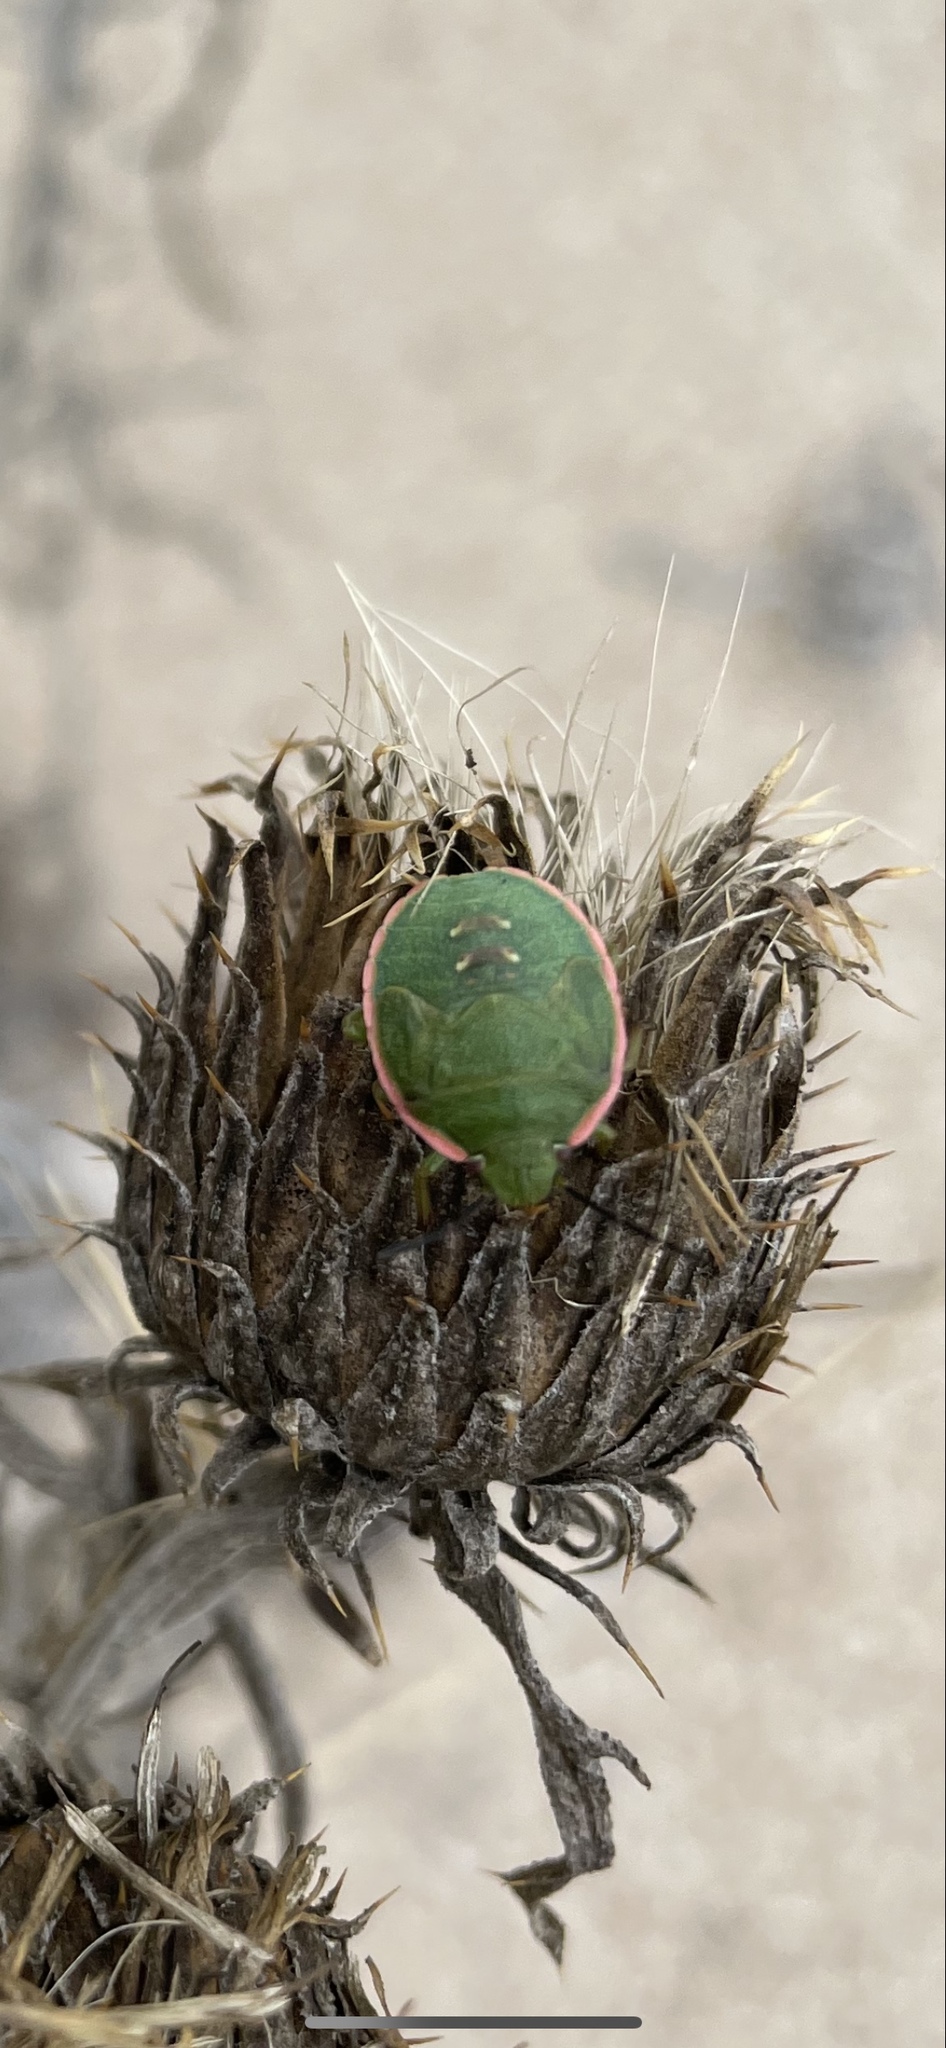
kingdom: Animalia
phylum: Arthropoda
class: Insecta
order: Hemiptera
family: Pentatomidae
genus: Chlorochroa
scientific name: Chlorochroa persimilis
